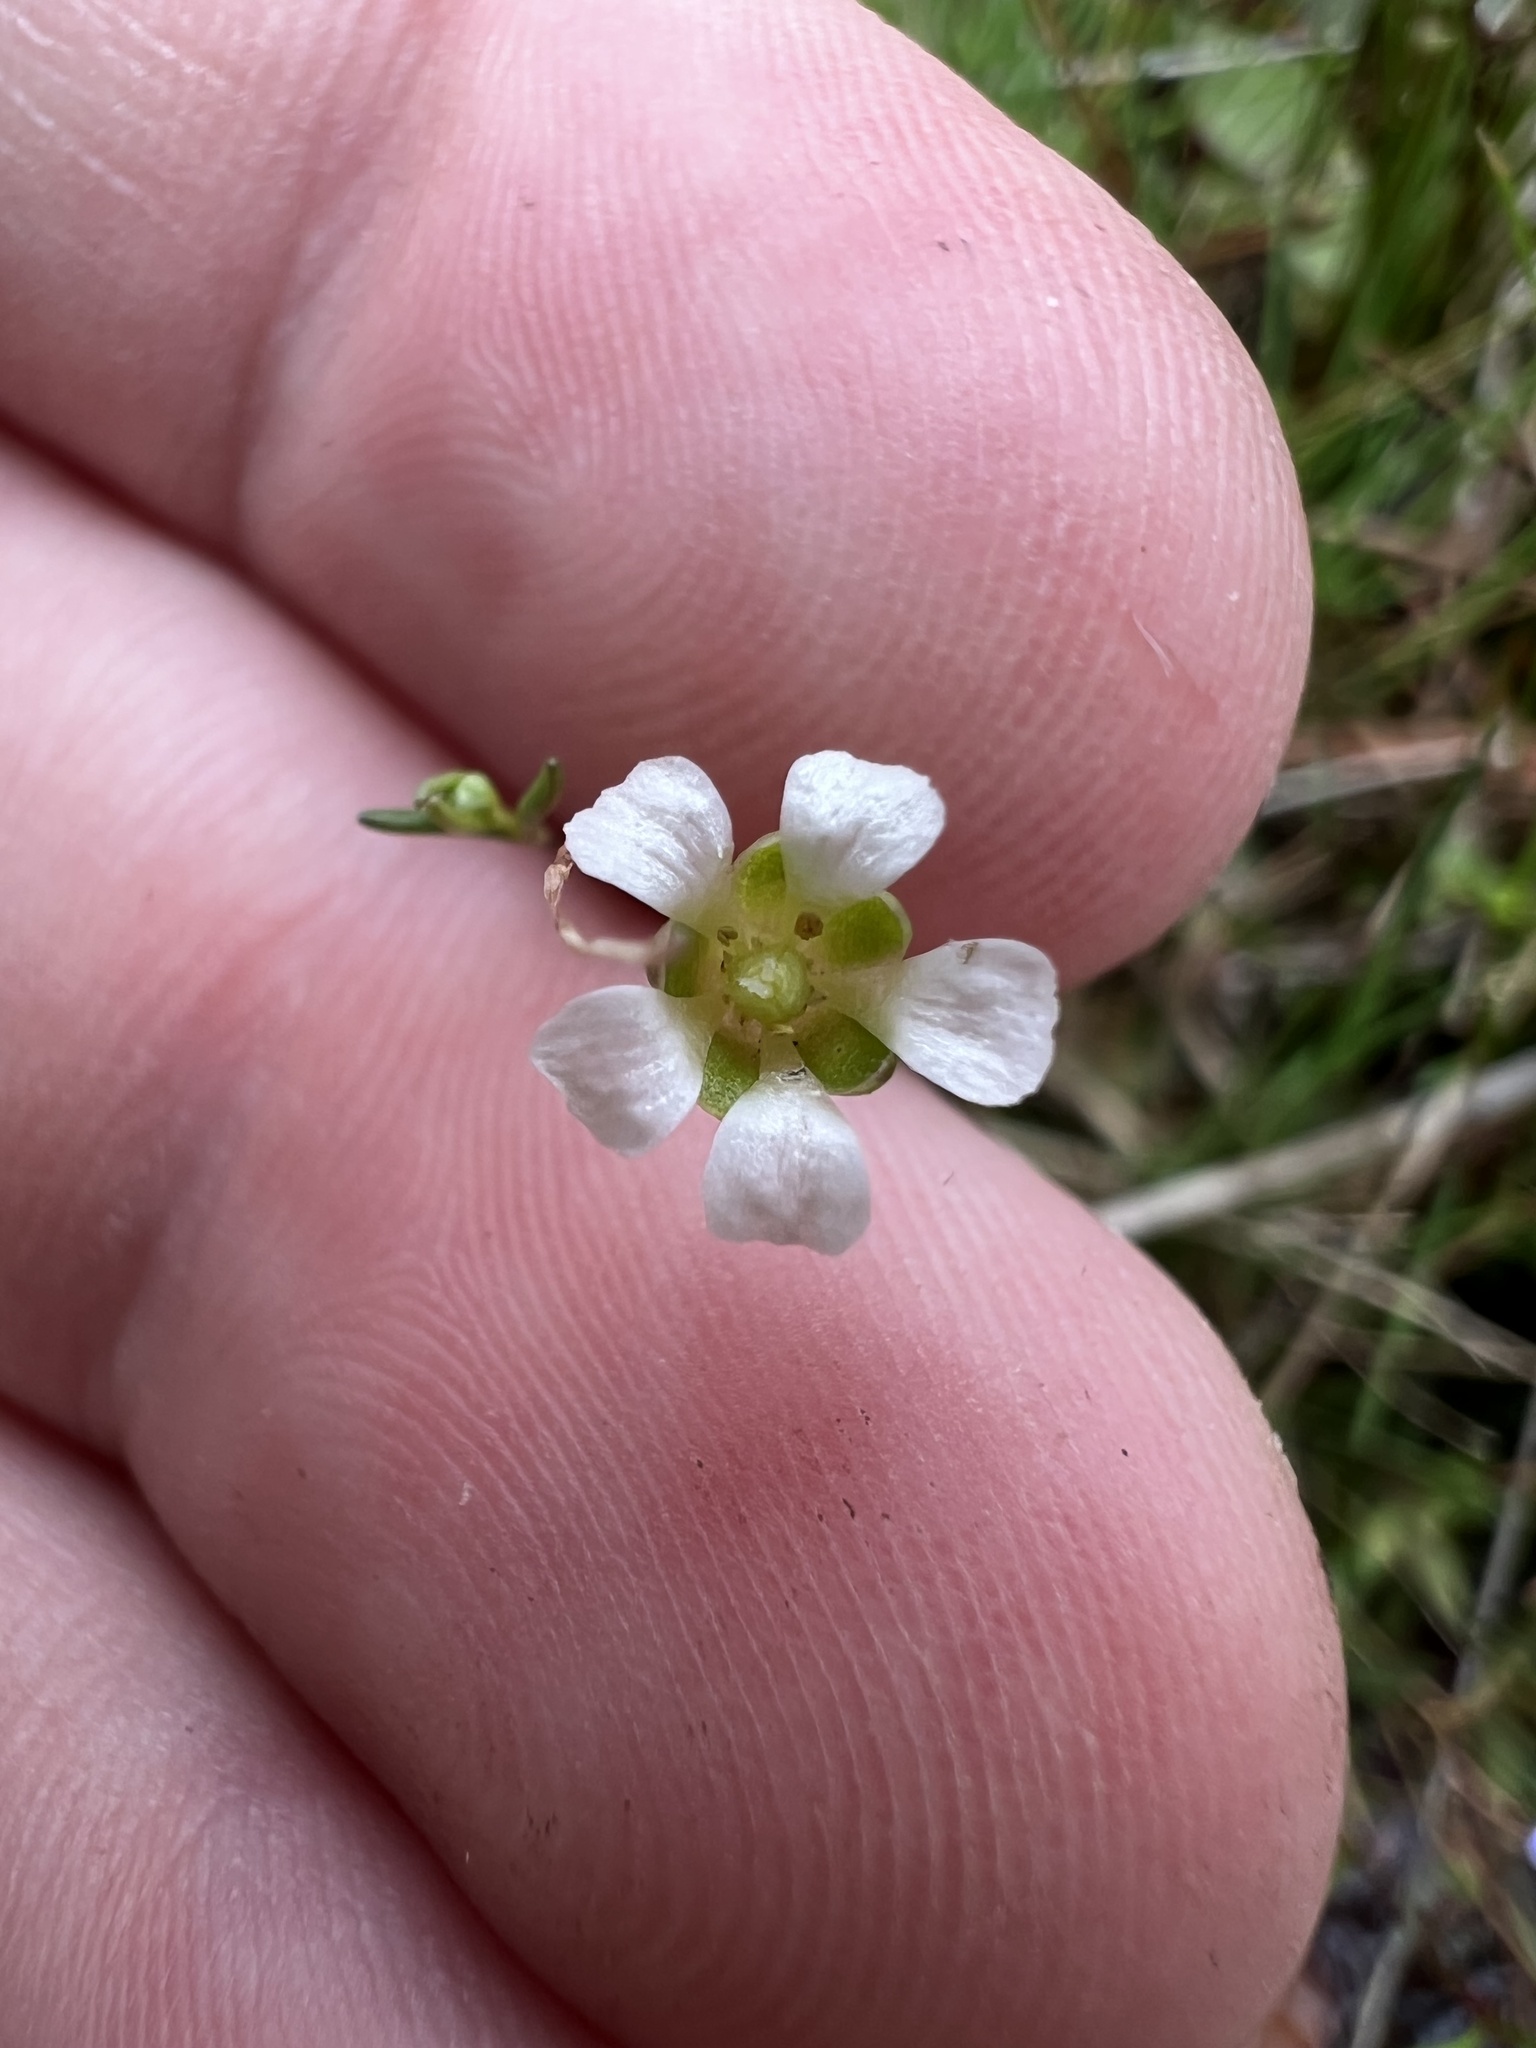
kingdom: Plantae
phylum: Tracheophyta
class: Magnoliopsida
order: Caryophyllales
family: Caryophyllaceae
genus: Geocarpon
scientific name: Geocarpon glabrum
